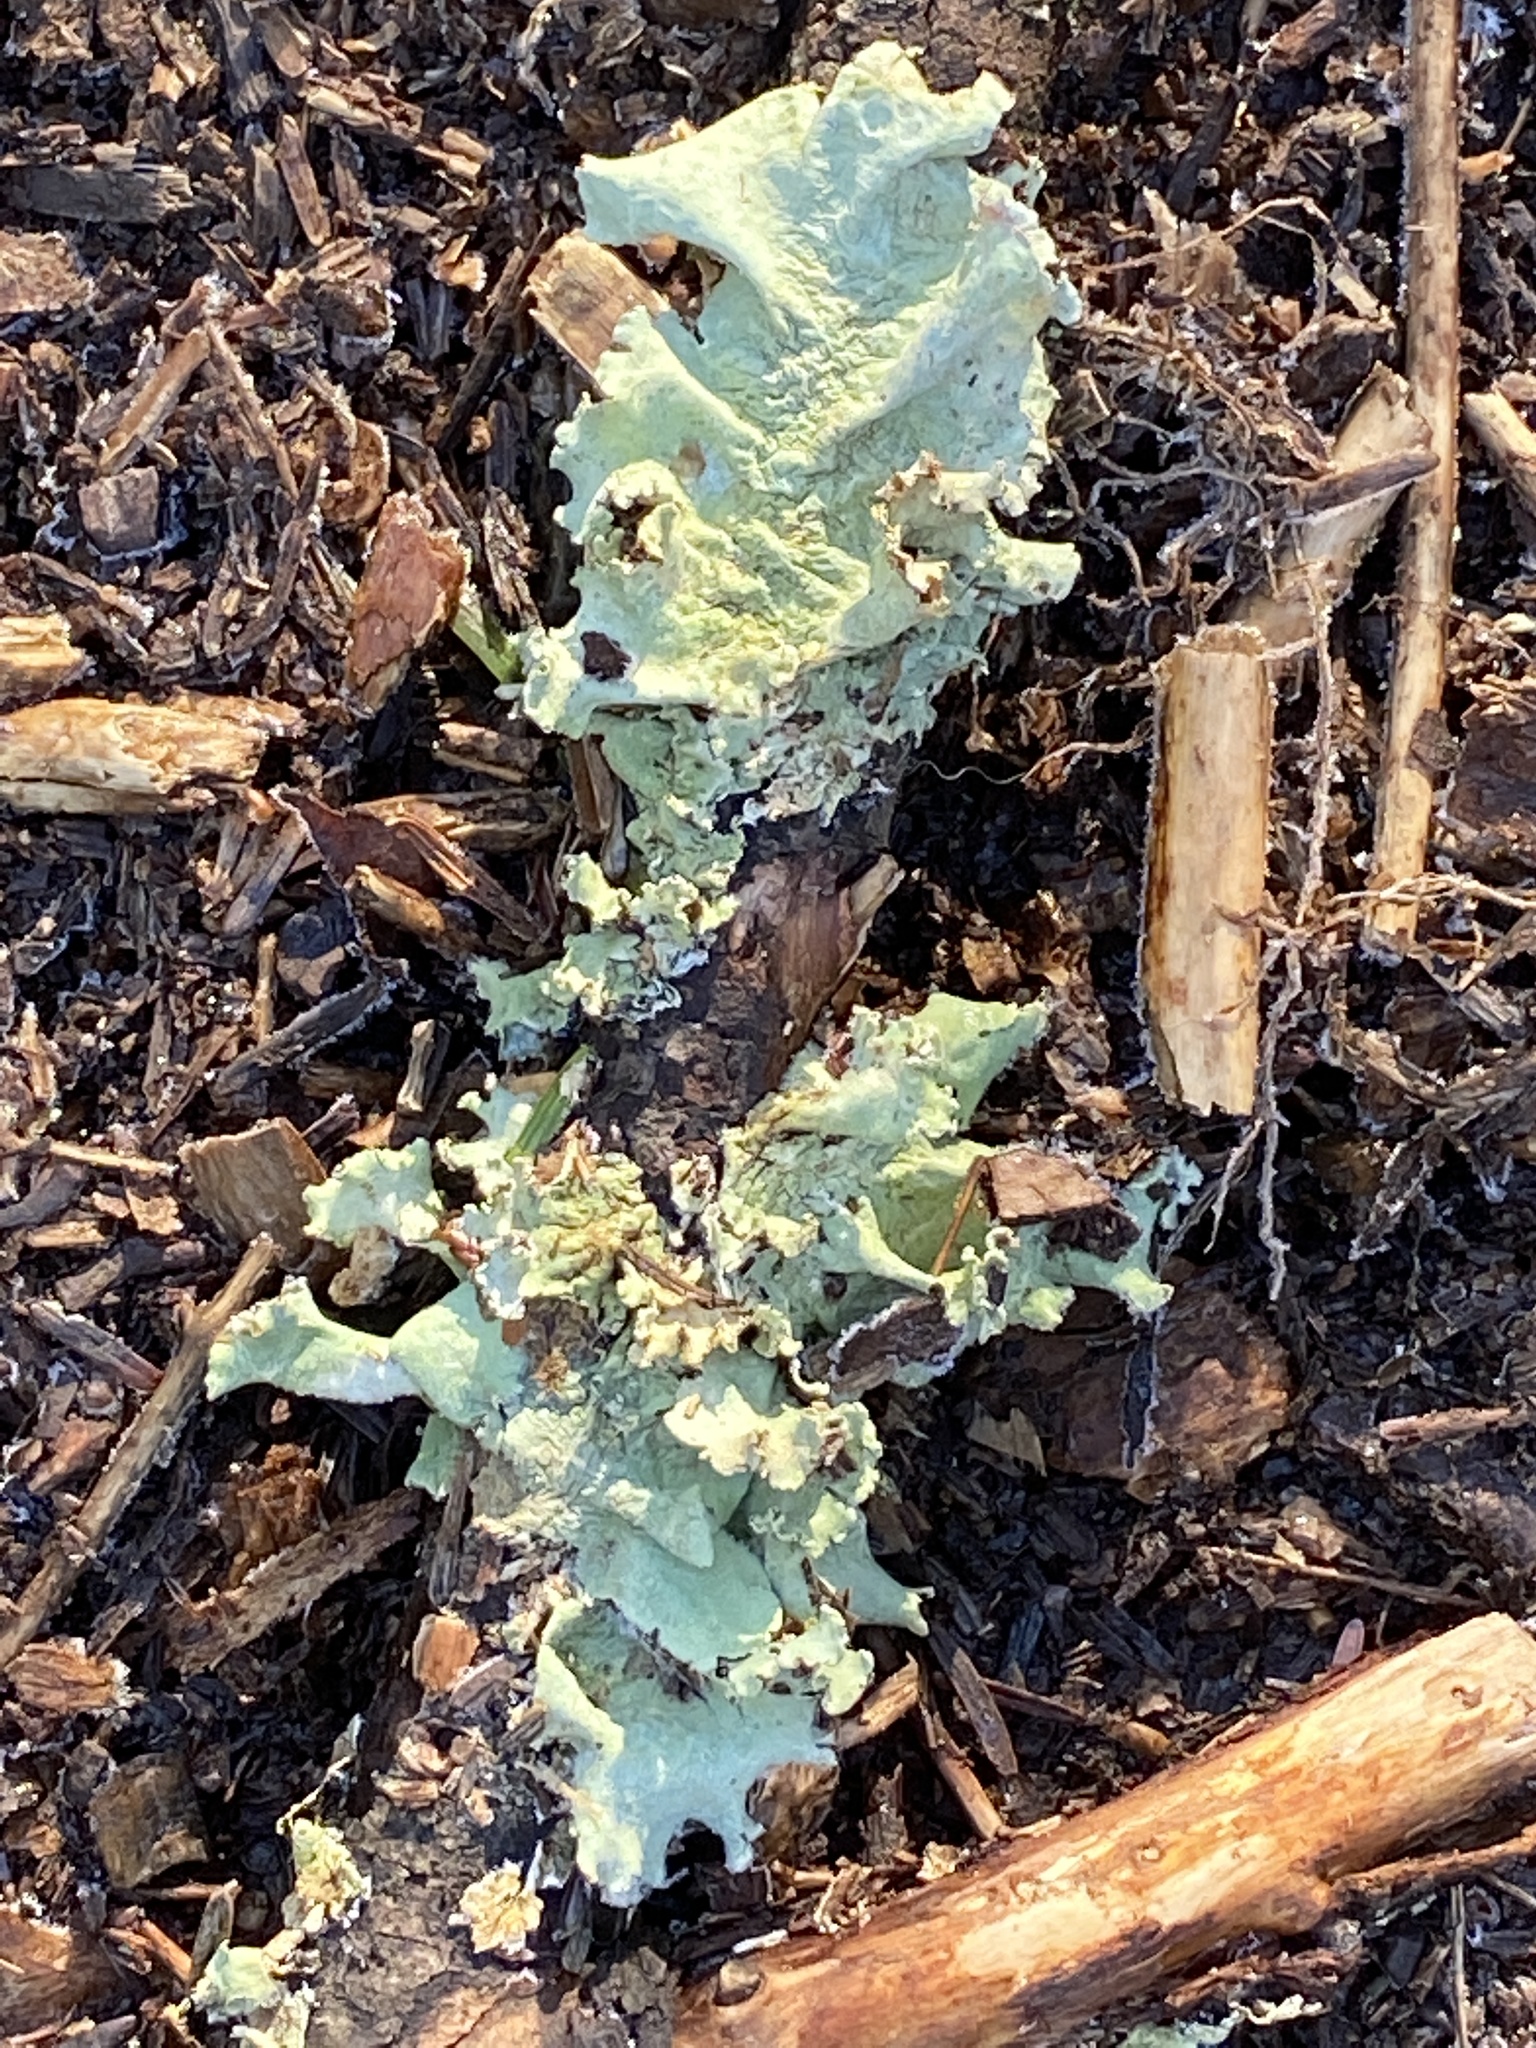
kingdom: Fungi
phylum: Ascomycota
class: Lecanoromycetes
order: Lecanorales
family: Parmeliaceae
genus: Flavoparmelia
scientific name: Flavoparmelia caperata
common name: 40-mile per hour lichen
